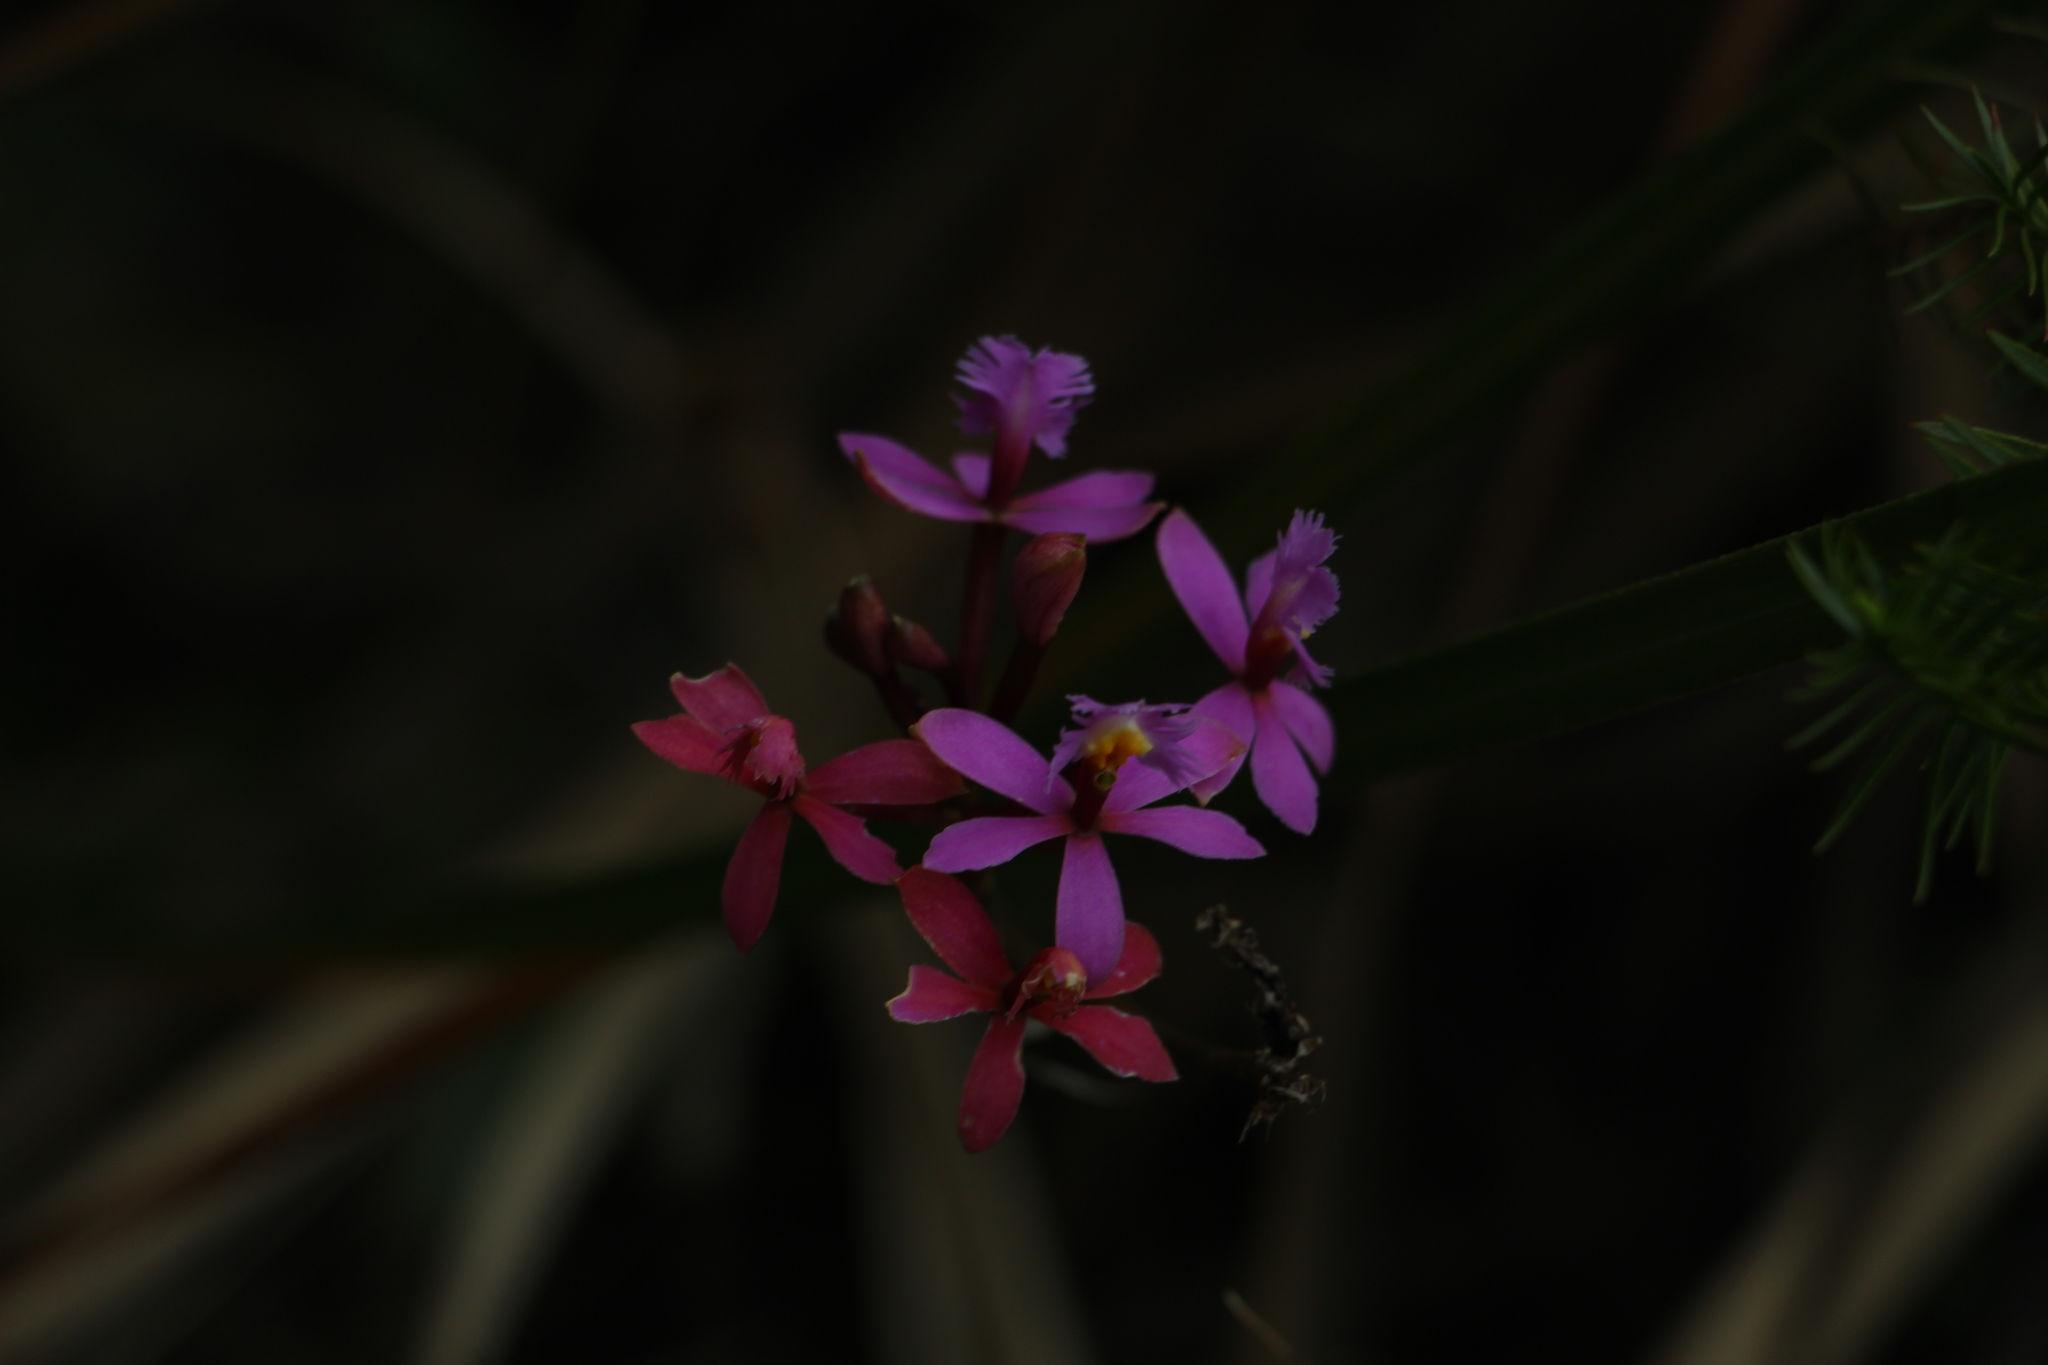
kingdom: Plantae
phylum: Tracheophyta
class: Liliopsida
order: Asparagales
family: Orchidaceae
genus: Epidendrum
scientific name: Epidendrum arachnoglossum
